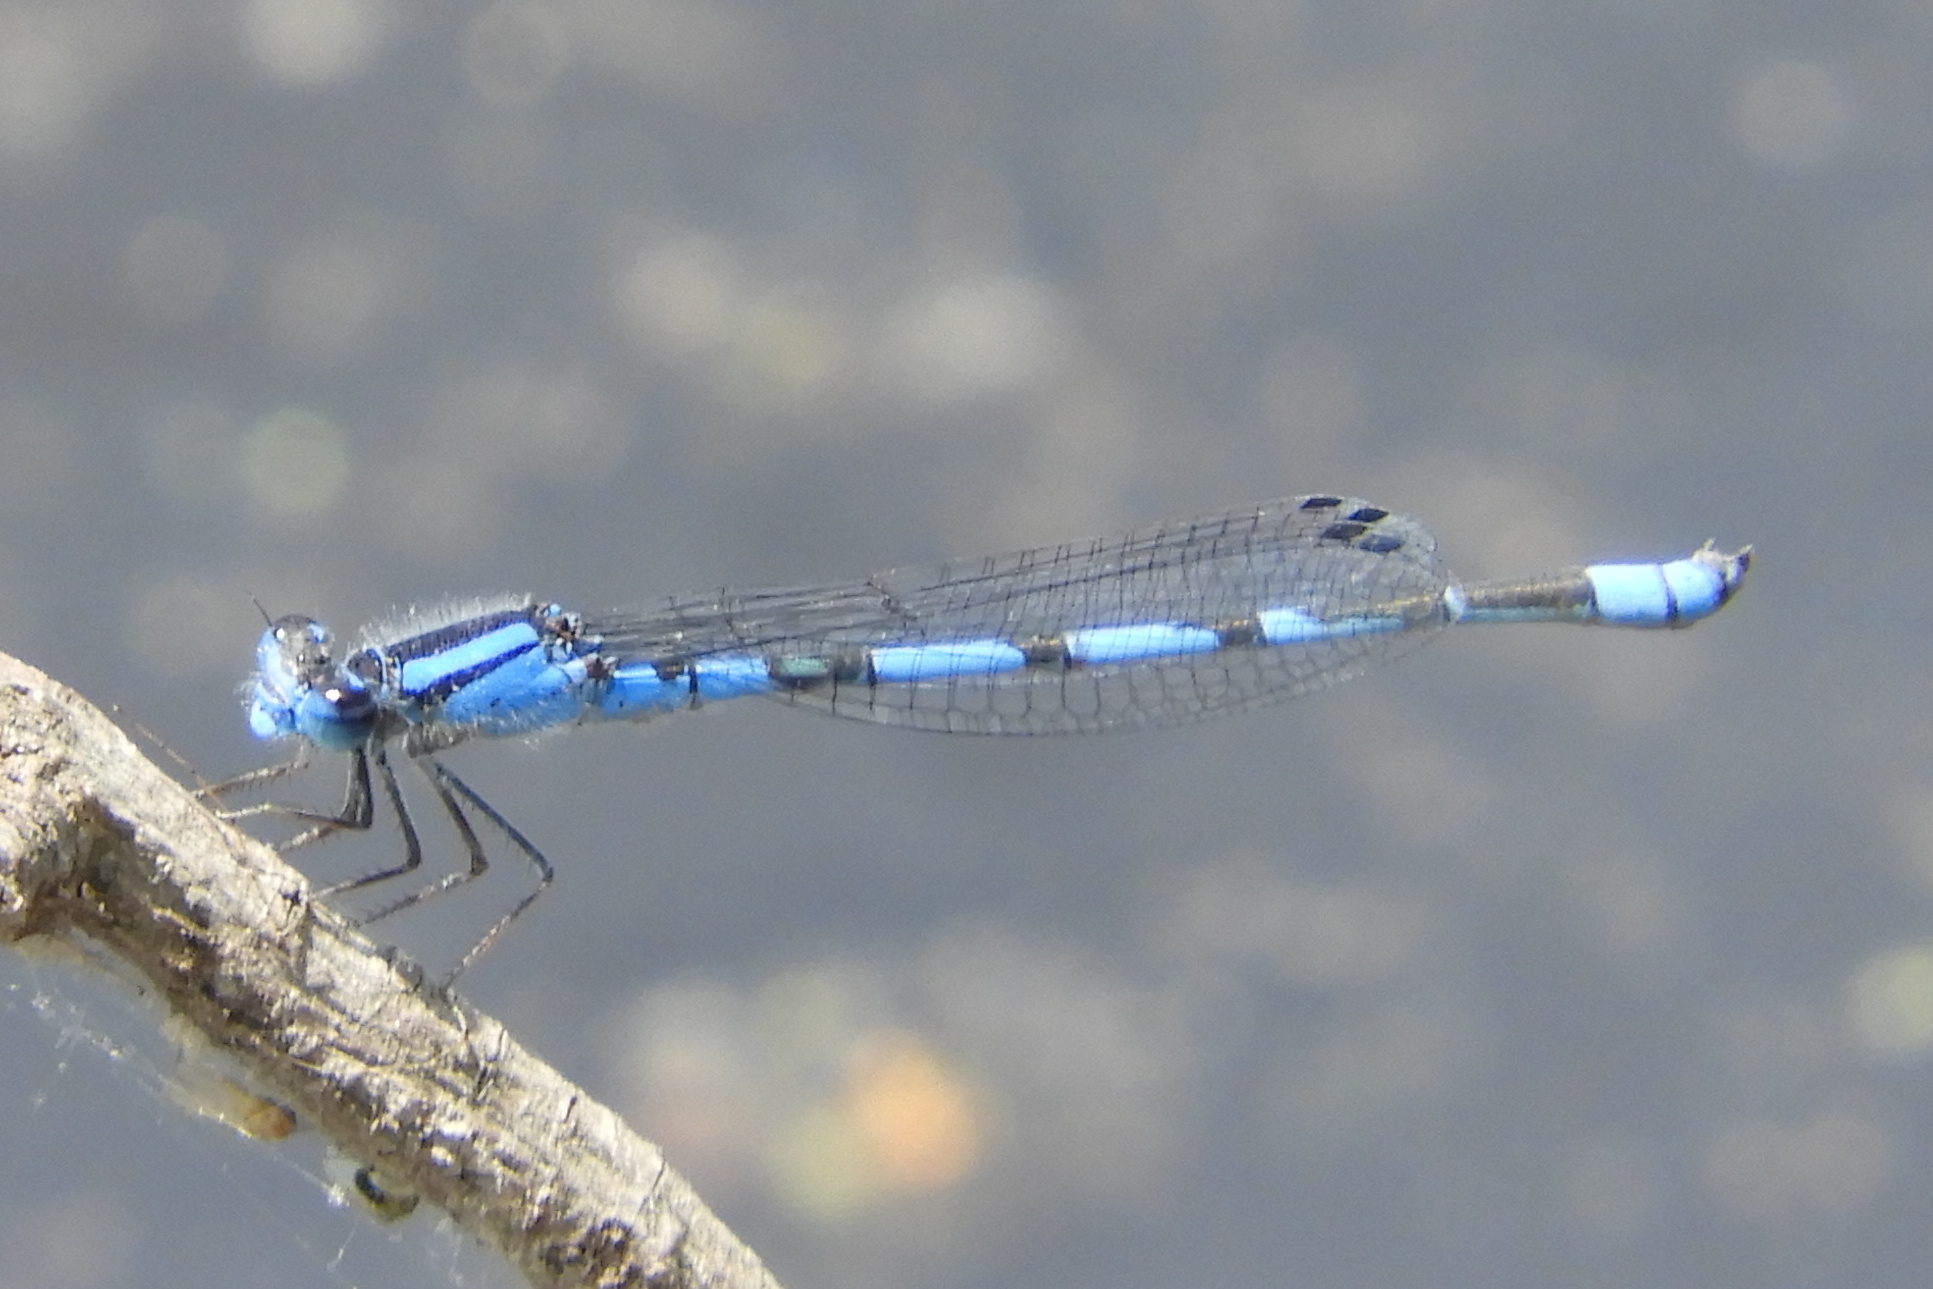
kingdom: Animalia
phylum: Arthropoda
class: Insecta
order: Odonata
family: Coenagrionidae
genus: Enallagma
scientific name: Enallagma civile
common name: Damselfly
